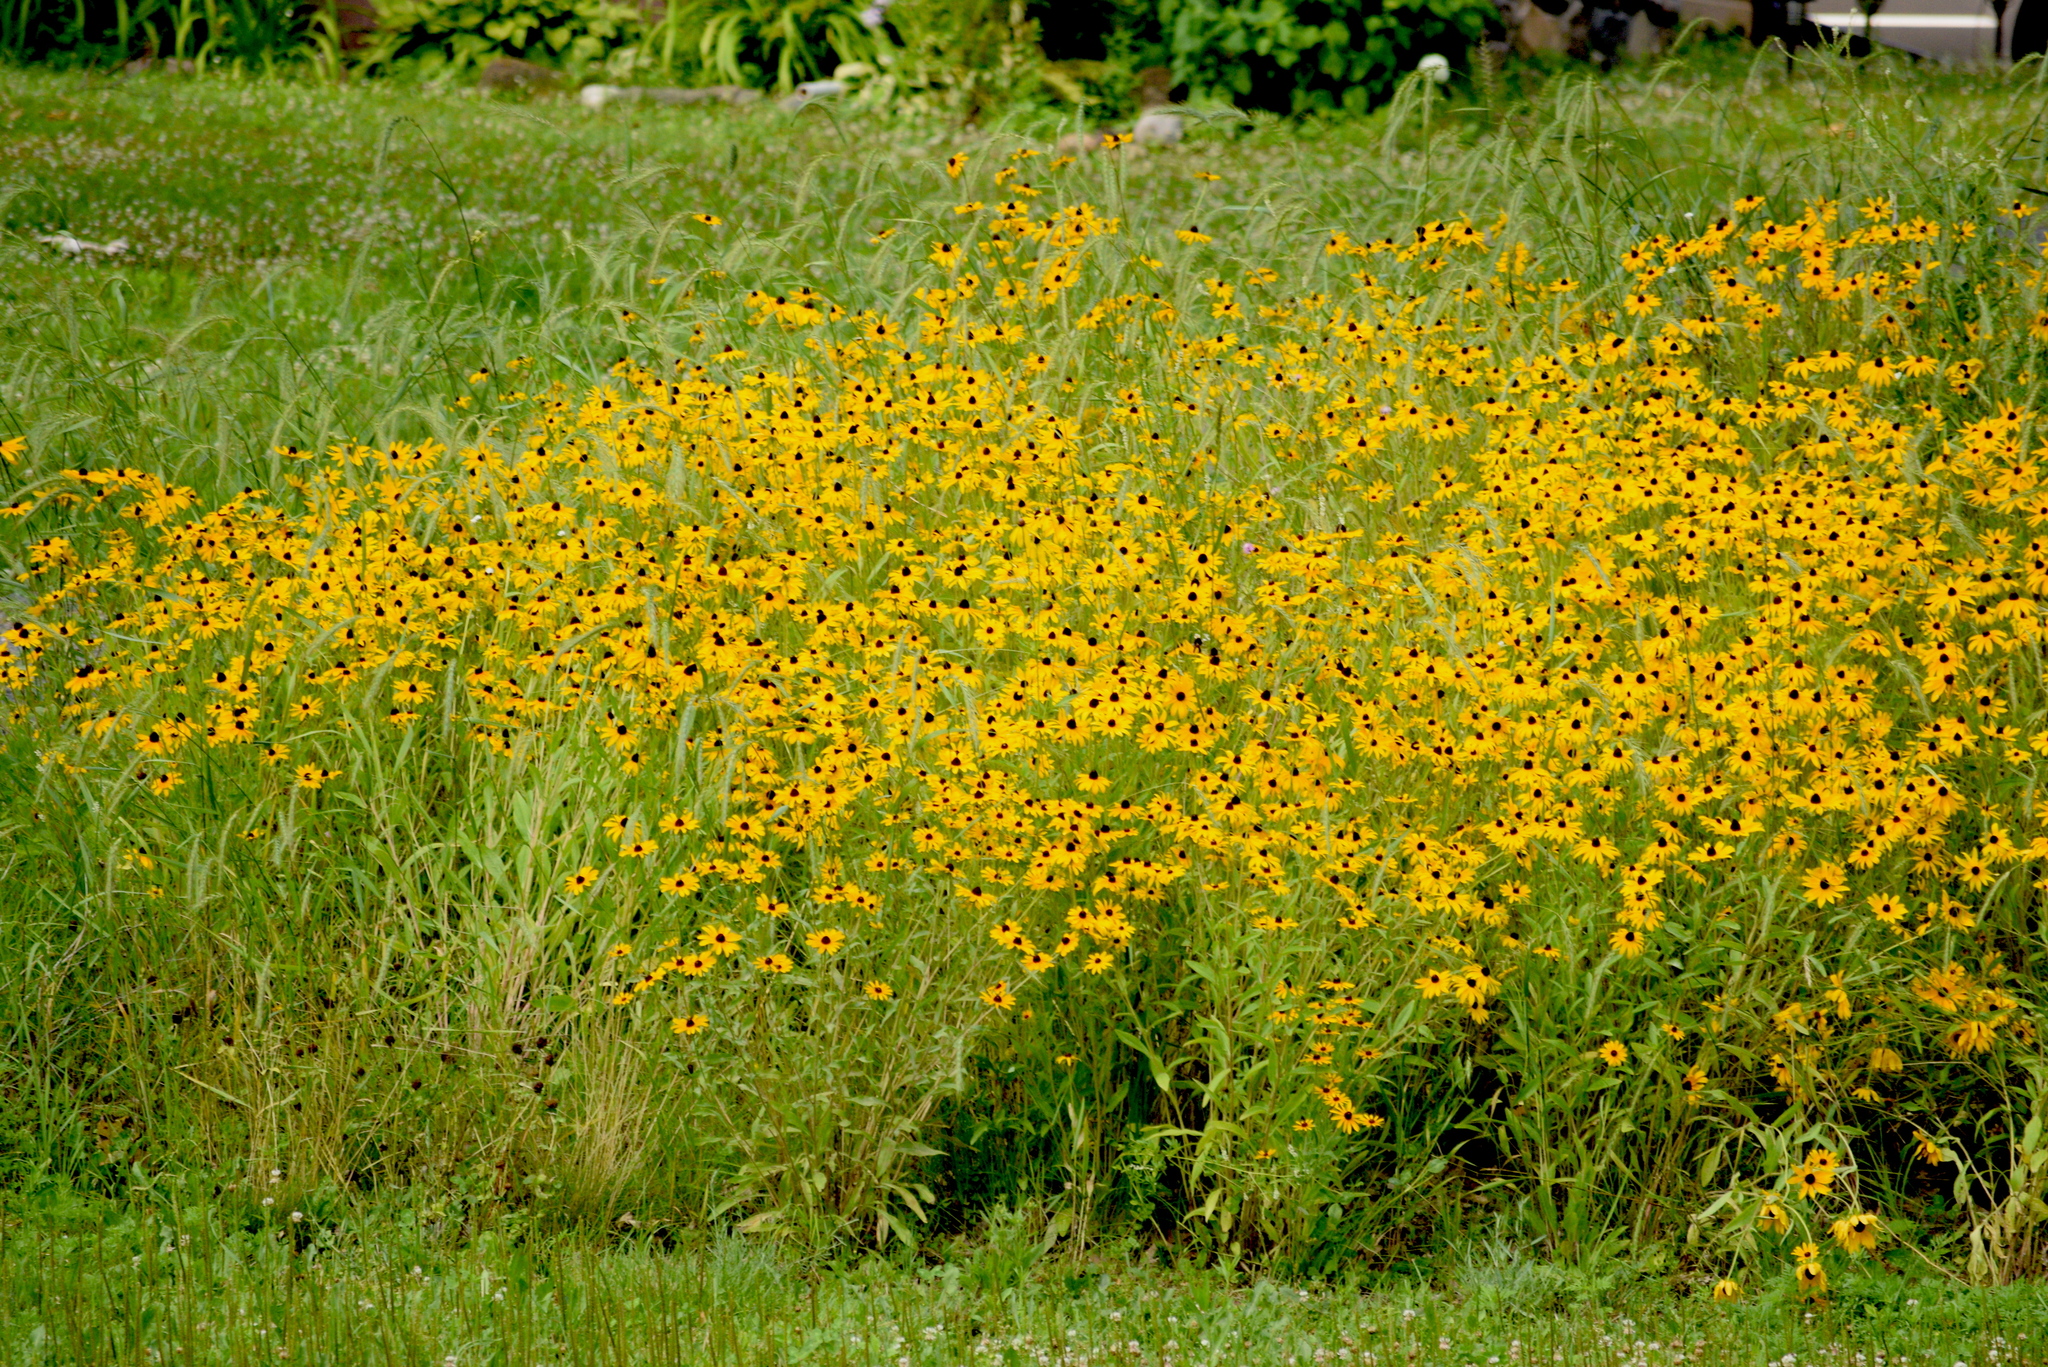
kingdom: Plantae
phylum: Tracheophyta
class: Magnoliopsida
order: Asterales
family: Asteraceae
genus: Rudbeckia
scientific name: Rudbeckia hirta
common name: Black-eyed-susan
